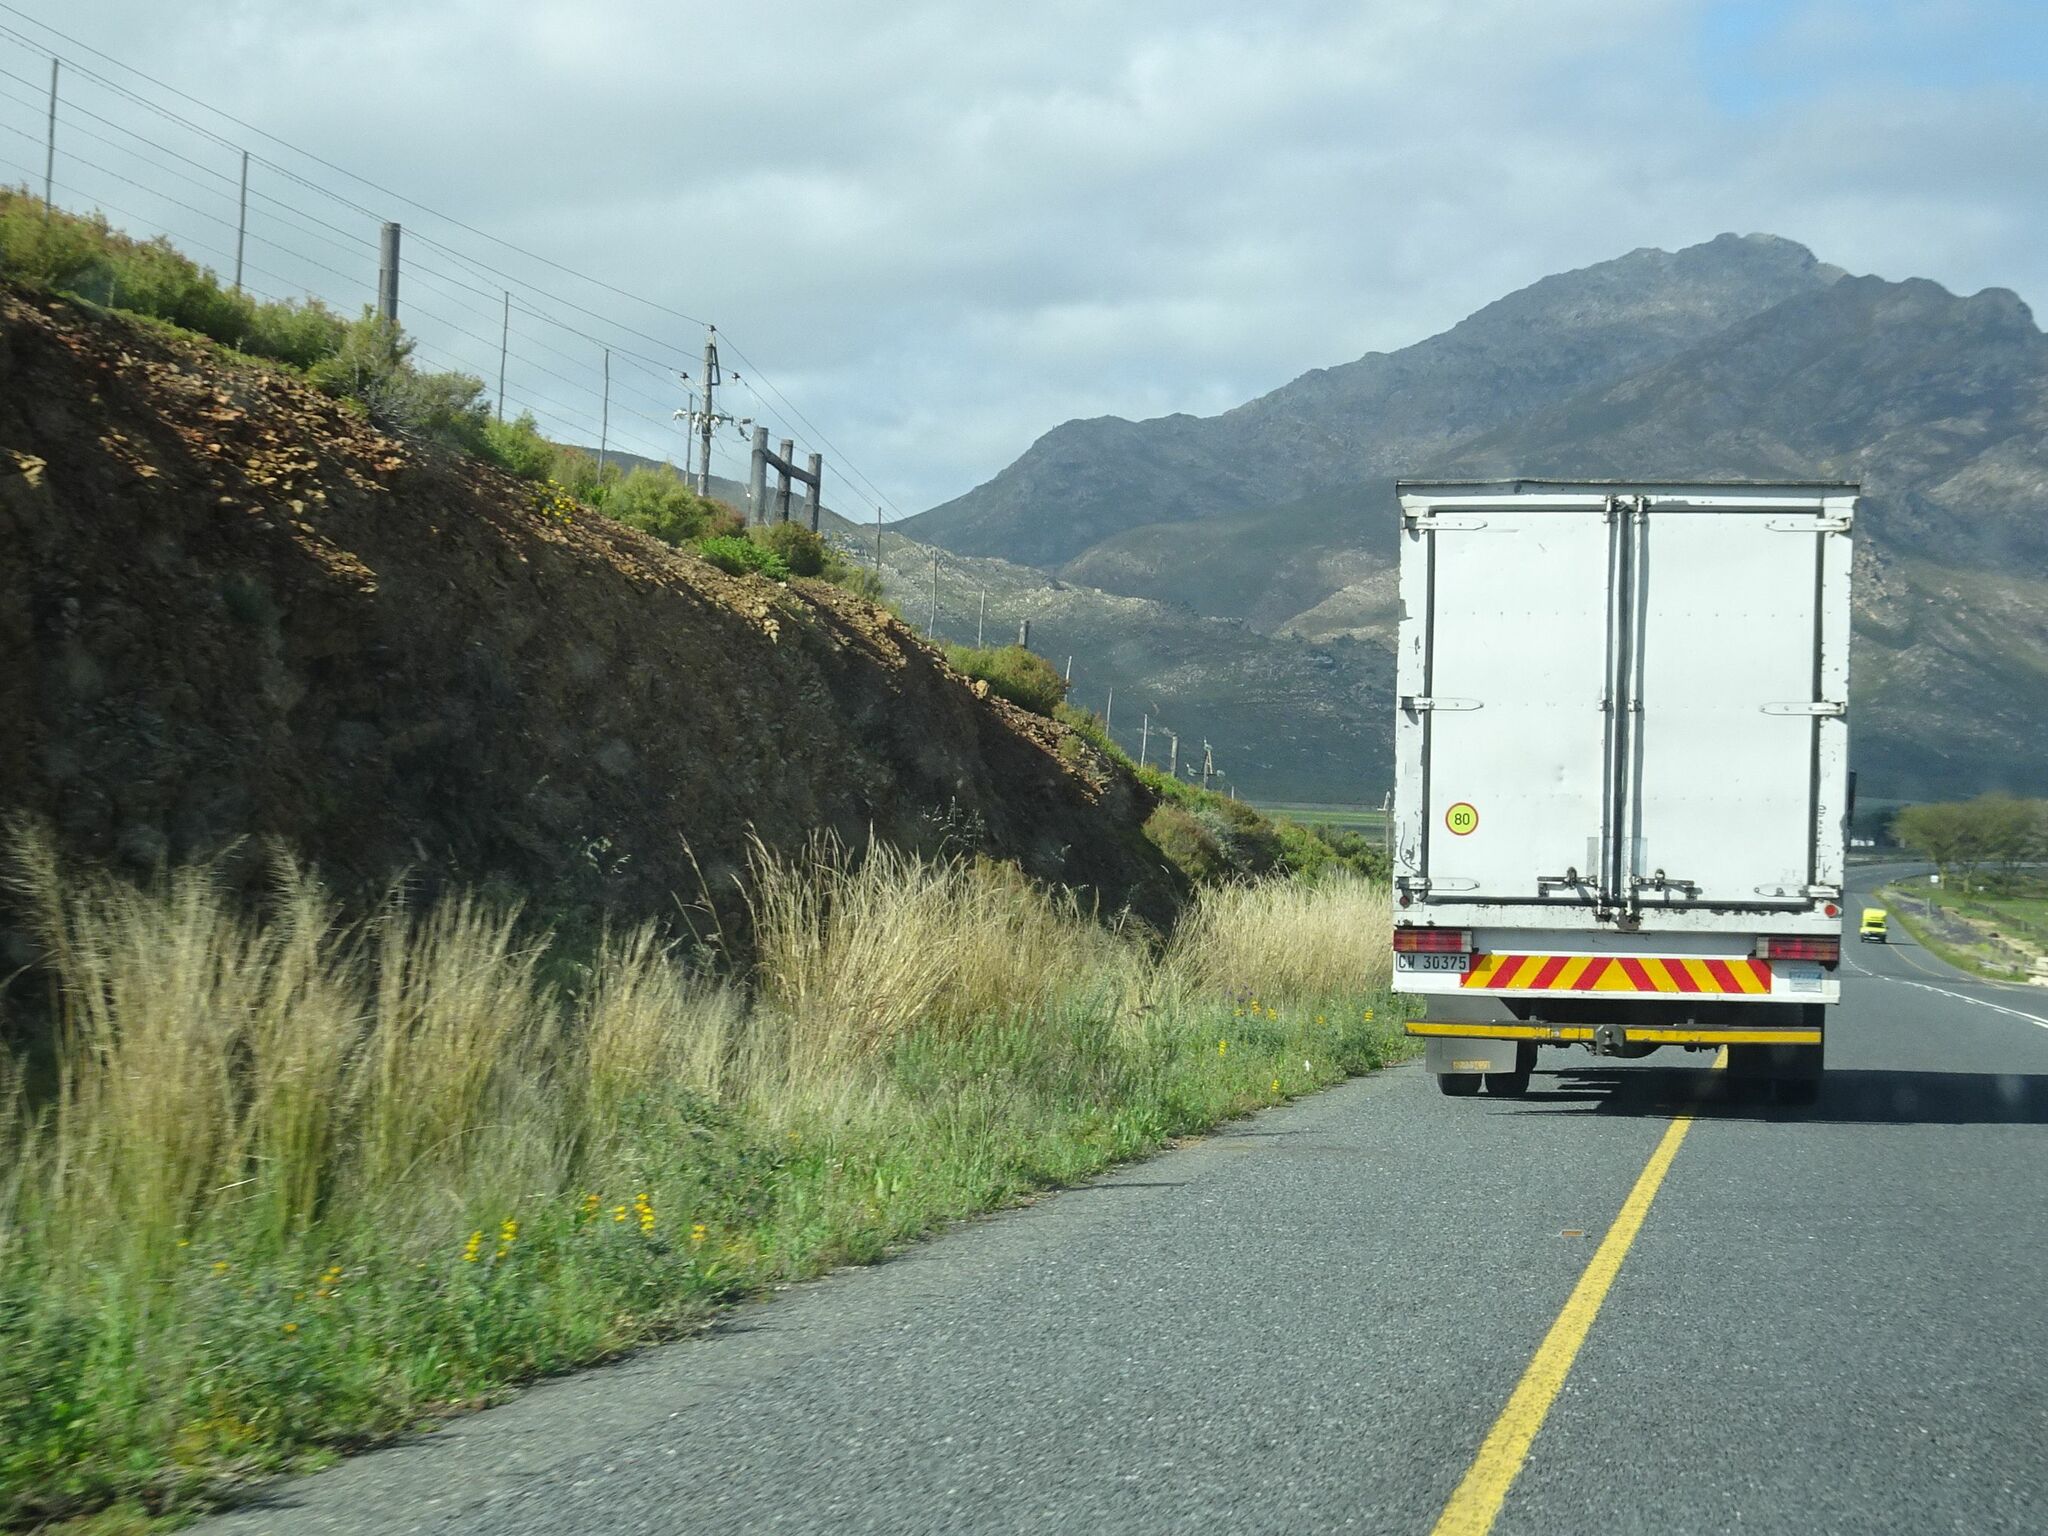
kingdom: Plantae
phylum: Tracheophyta
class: Magnoliopsida
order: Fabales
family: Fabaceae
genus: Lupinus
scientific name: Lupinus luteus
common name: European yellow lupine
